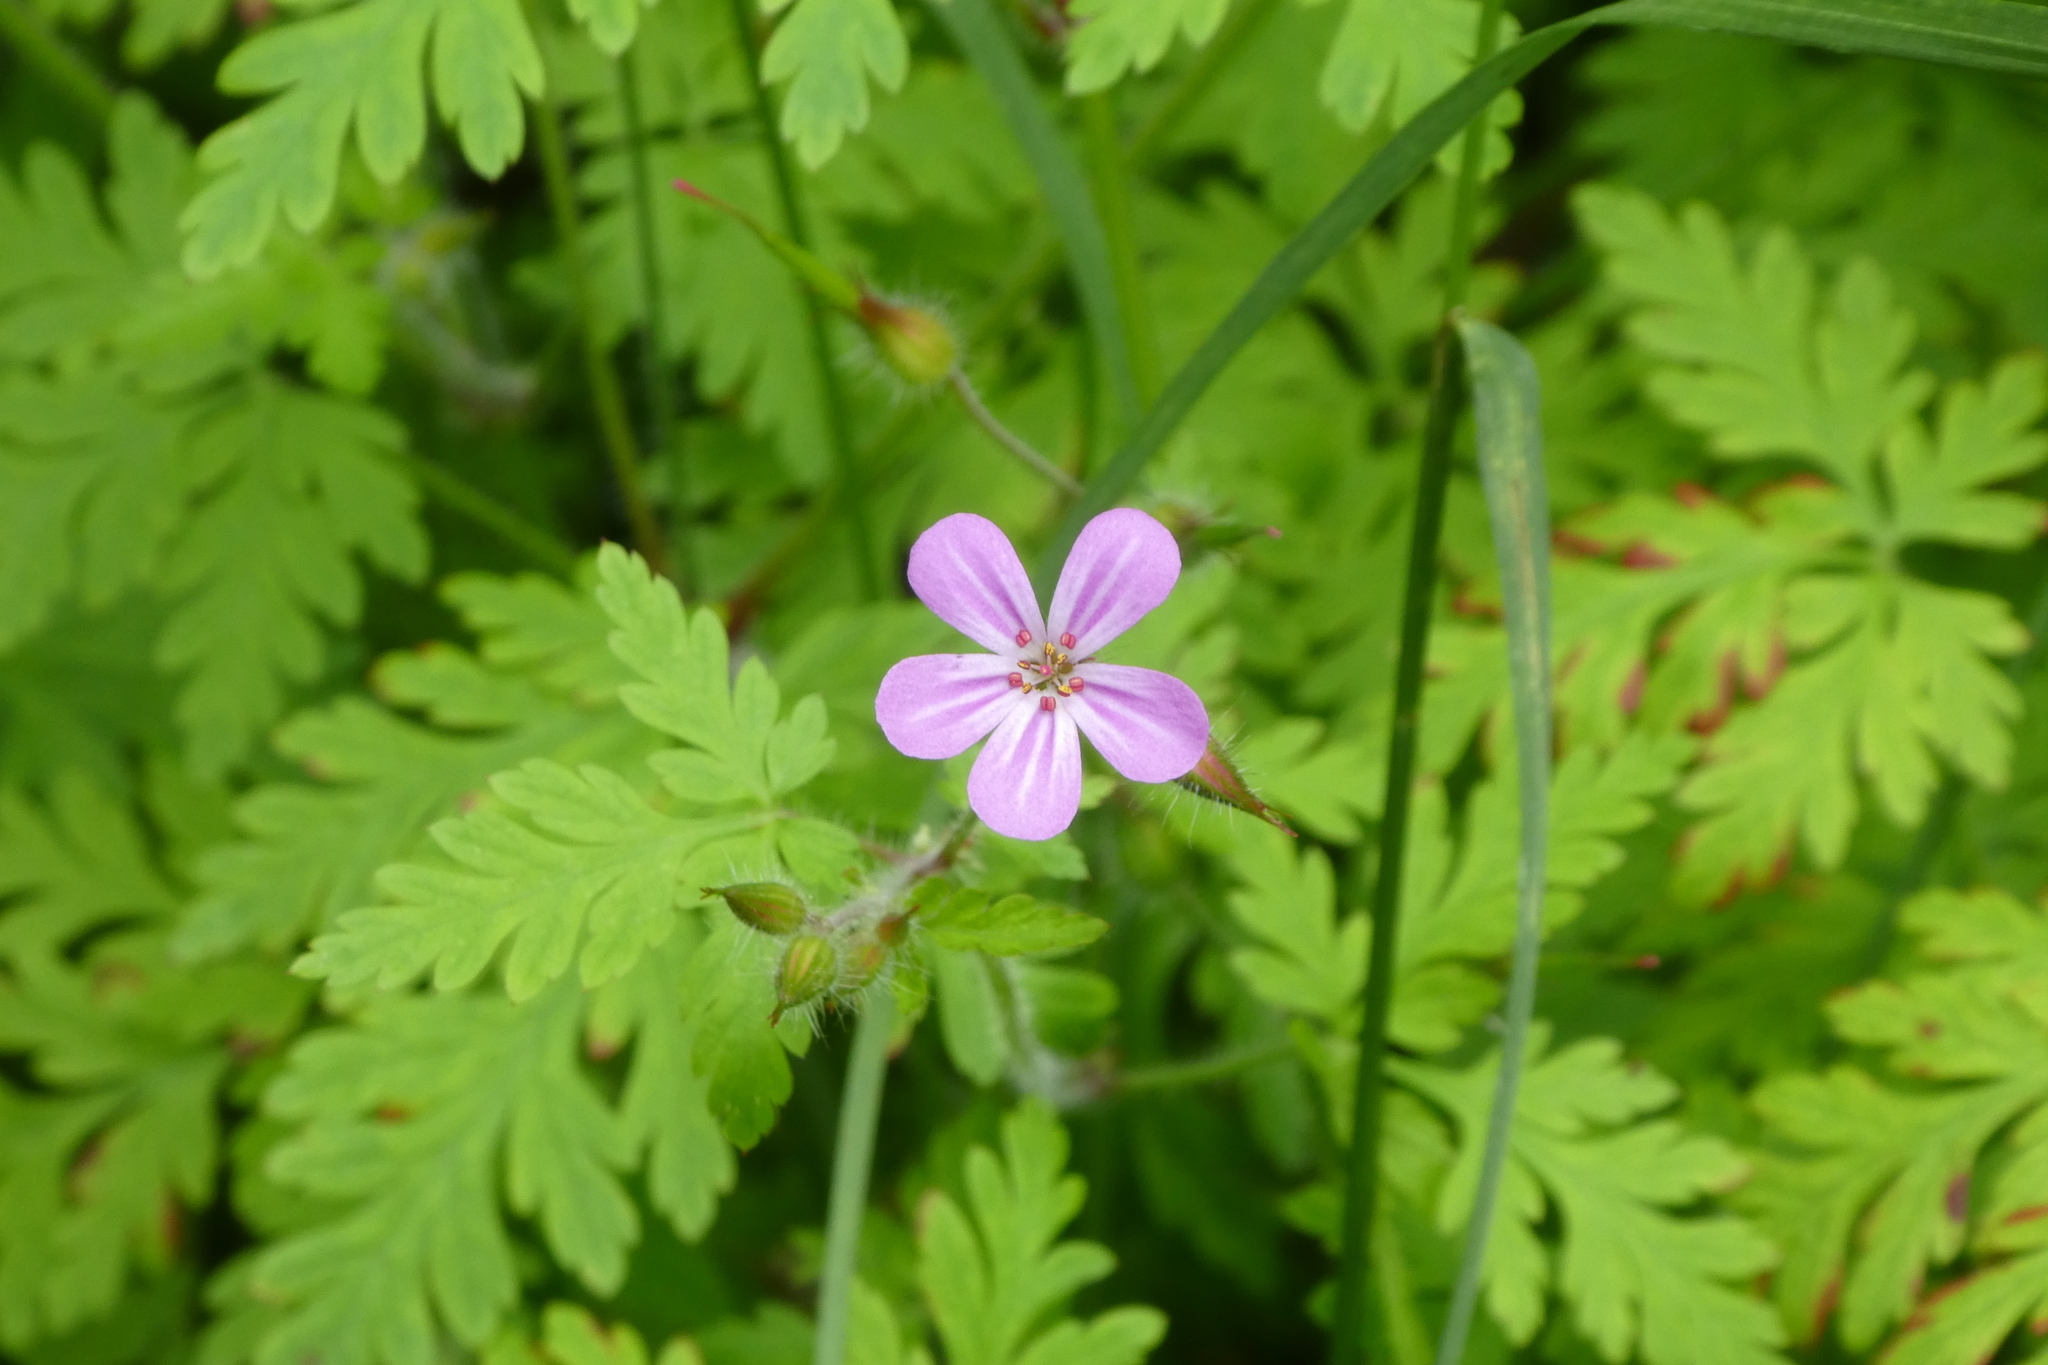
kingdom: Plantae
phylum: Tracheophyta
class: Magnoliopsida
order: Geraniales
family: Geraniaceae
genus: Geranium
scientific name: Geranium robertianum
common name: Herb-robert
